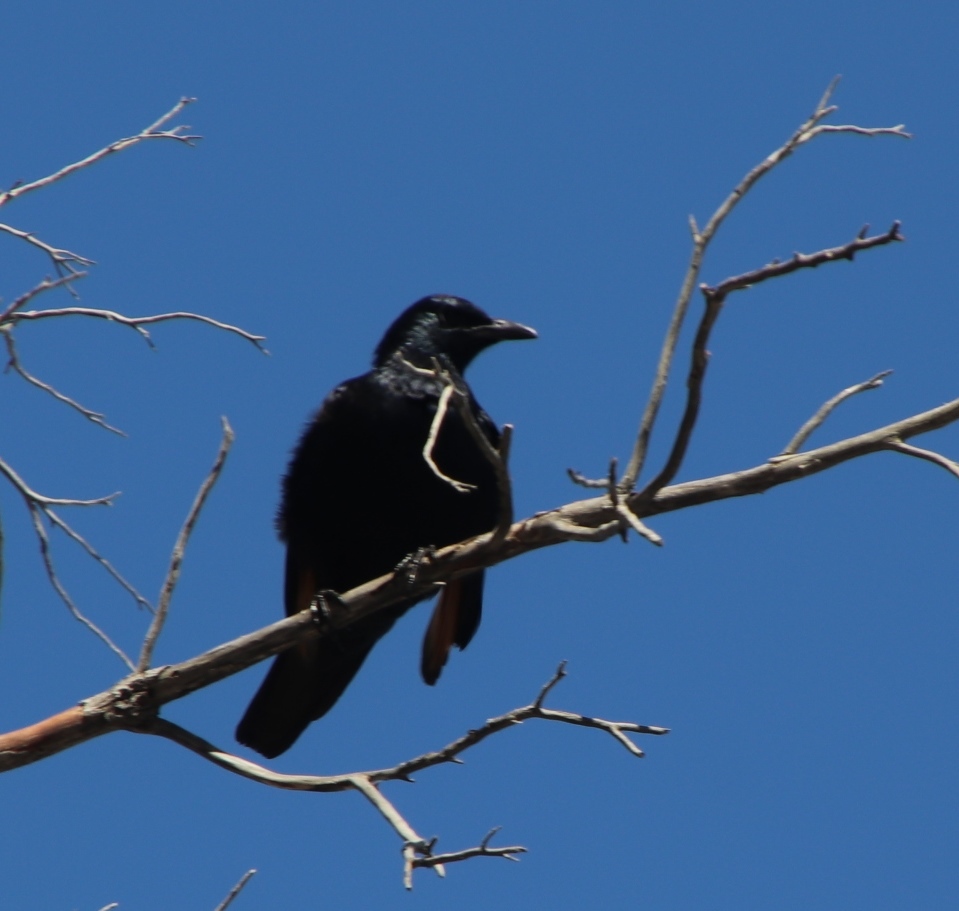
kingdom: Animalia
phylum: Chordata
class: Aves
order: Passeriformes
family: Sturnidae
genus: Onychognathus
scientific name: Onychognathus morio
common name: Red-winged starling
